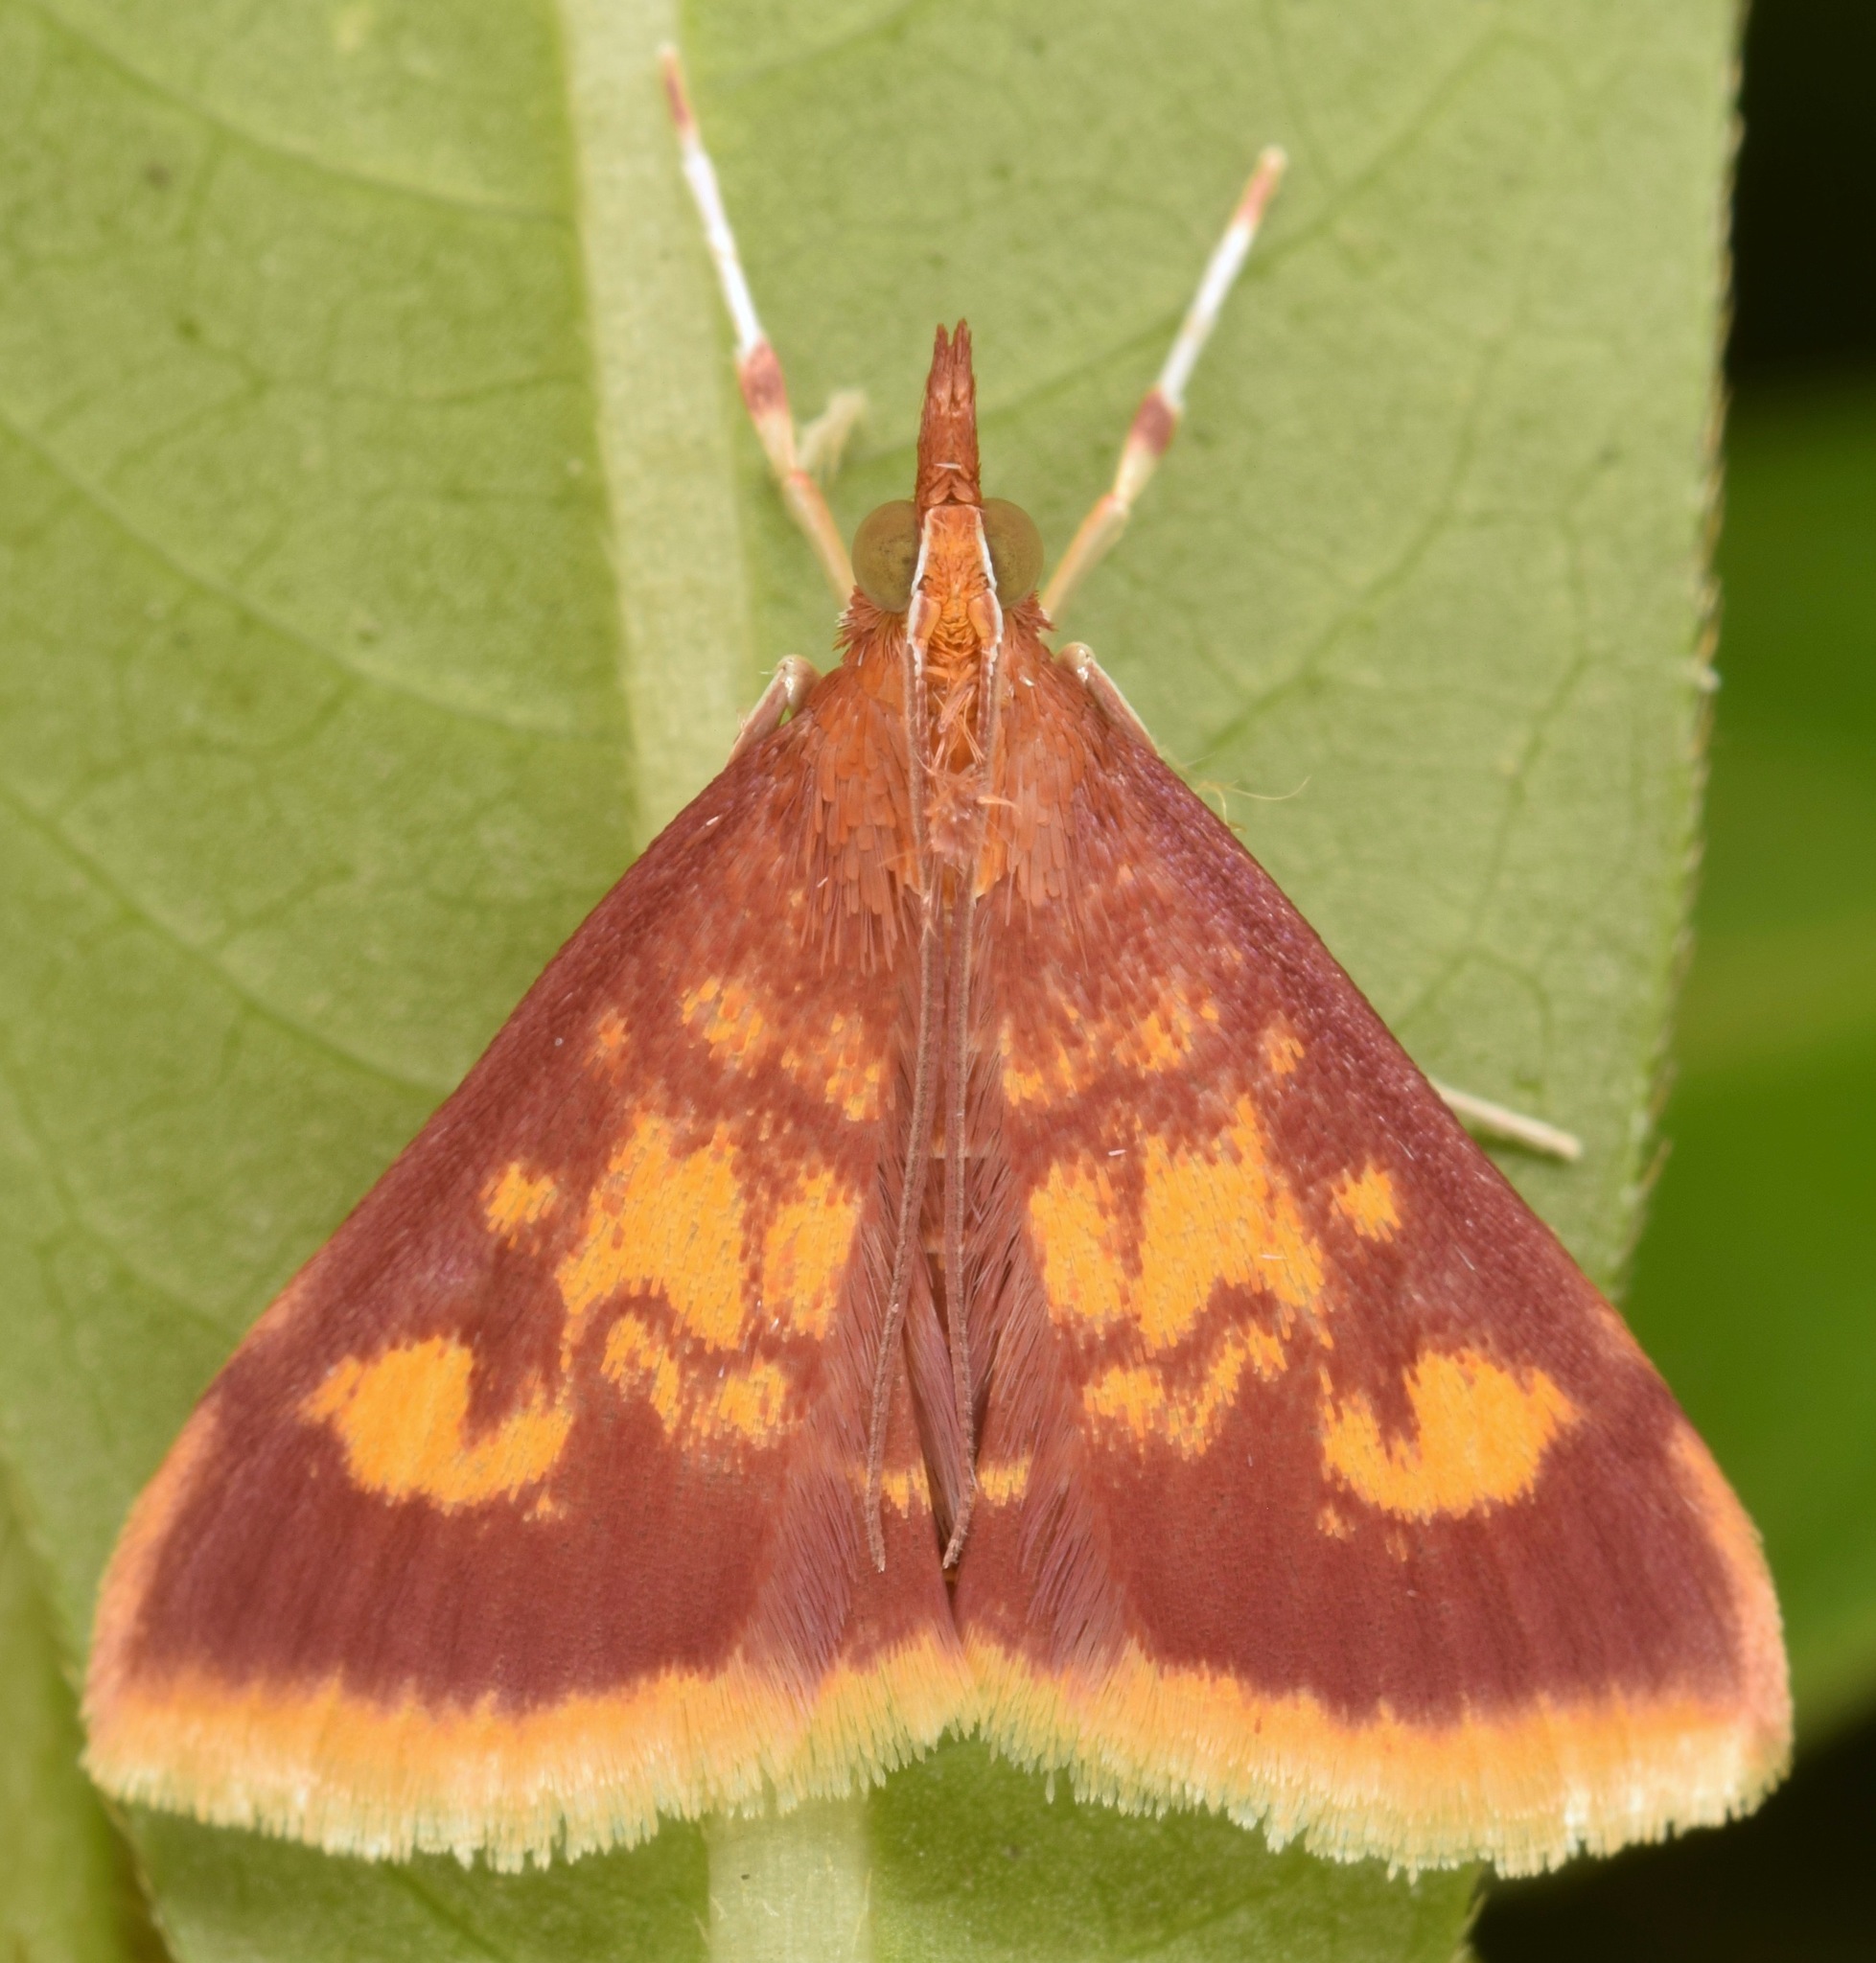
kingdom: Animalia
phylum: Arthropoda
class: Insecta
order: Lepidoptera
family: Crambidae
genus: Pyrausta
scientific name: Pyrausta acrionalis
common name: Mint-loving pyrausta moth
